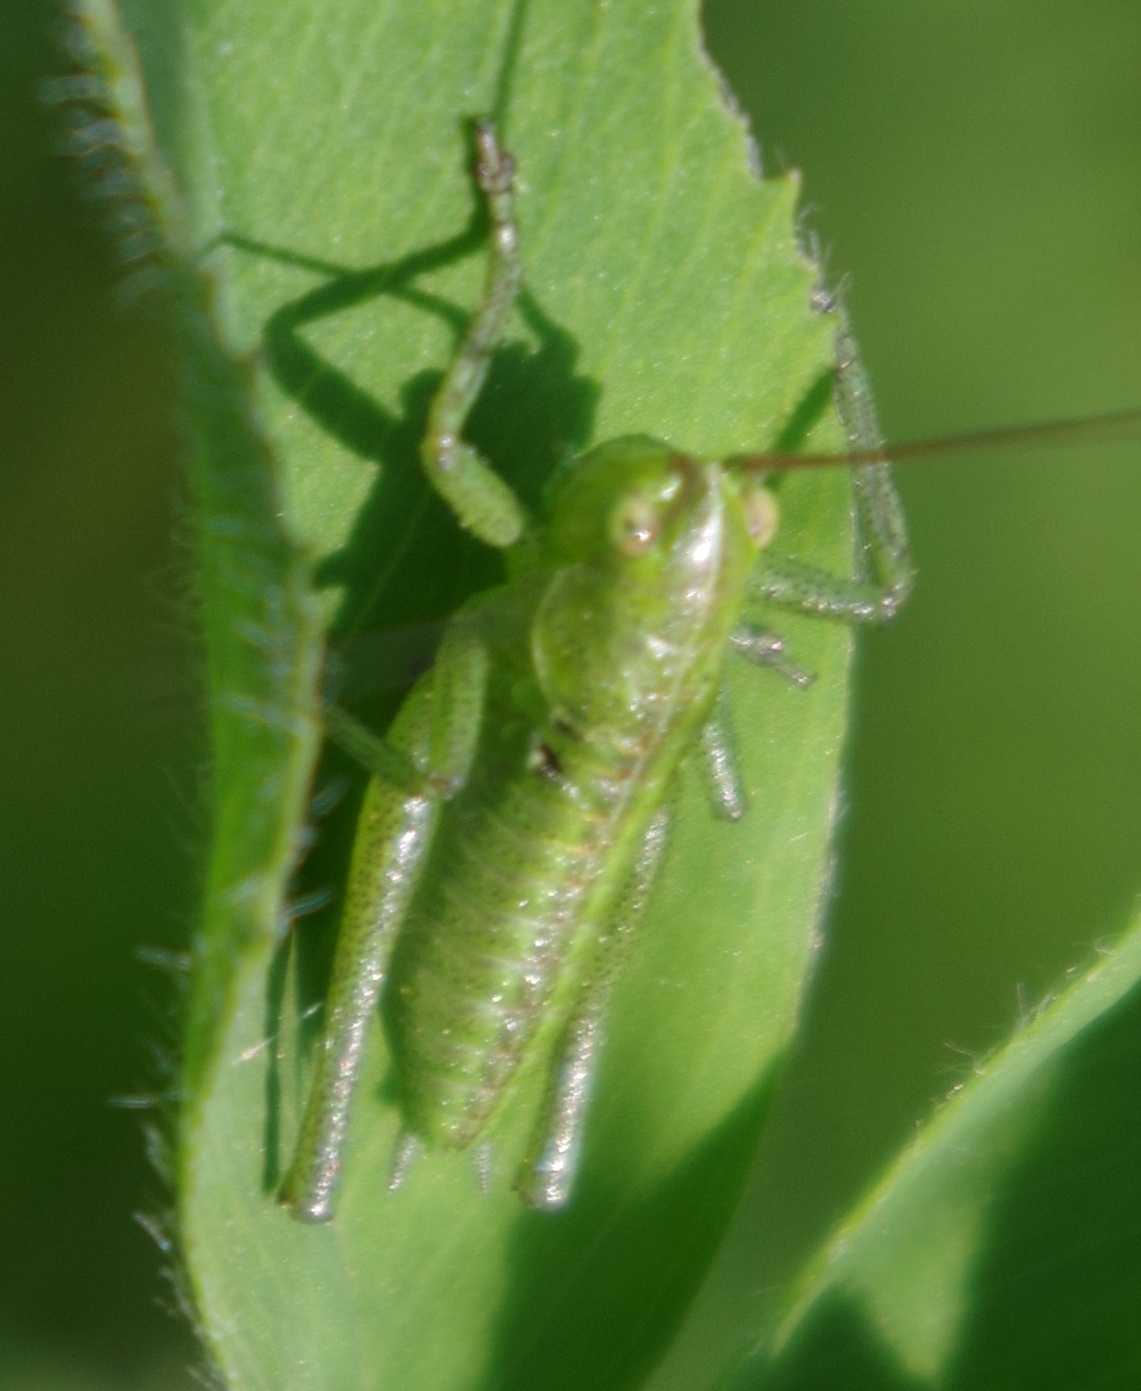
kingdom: Animalia
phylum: Arthropoda
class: Insecta
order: Orthoptera
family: Tettigoniidae
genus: Tettigonia
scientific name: Tettigonia viridissima
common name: Great green bush-cricket
